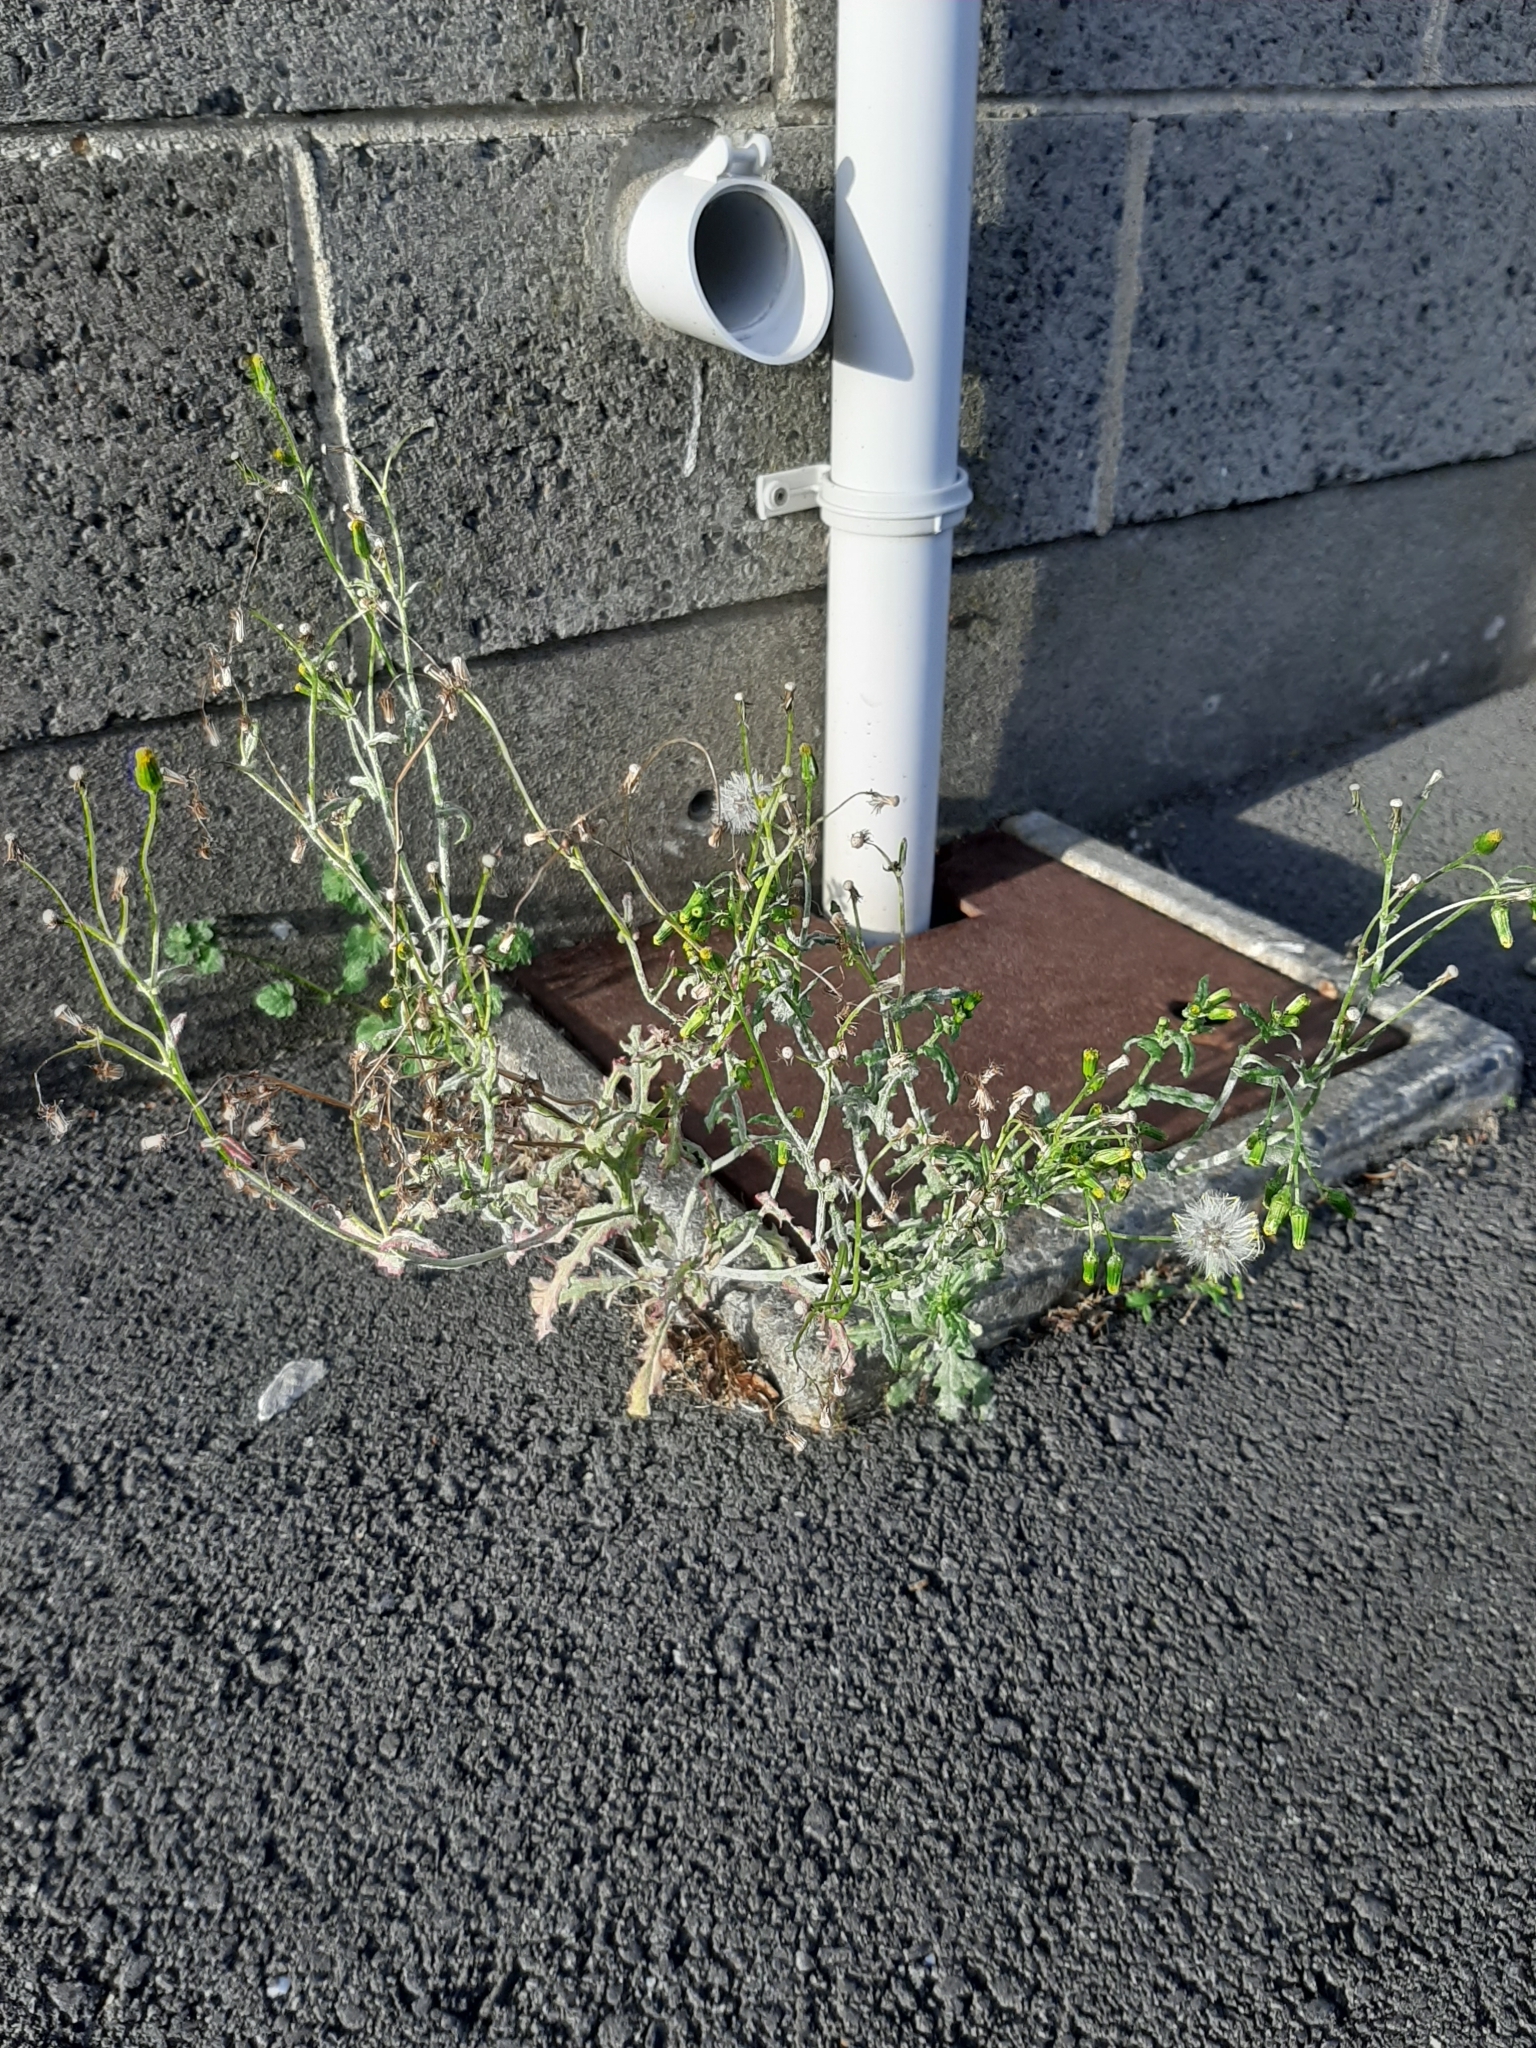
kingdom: Plantae
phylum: Tracheophyta
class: Magnoliopsida
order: Asterales
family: Asteraceae
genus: Senecio
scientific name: Senecio vulgaris
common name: Old-man-in-the-spring
